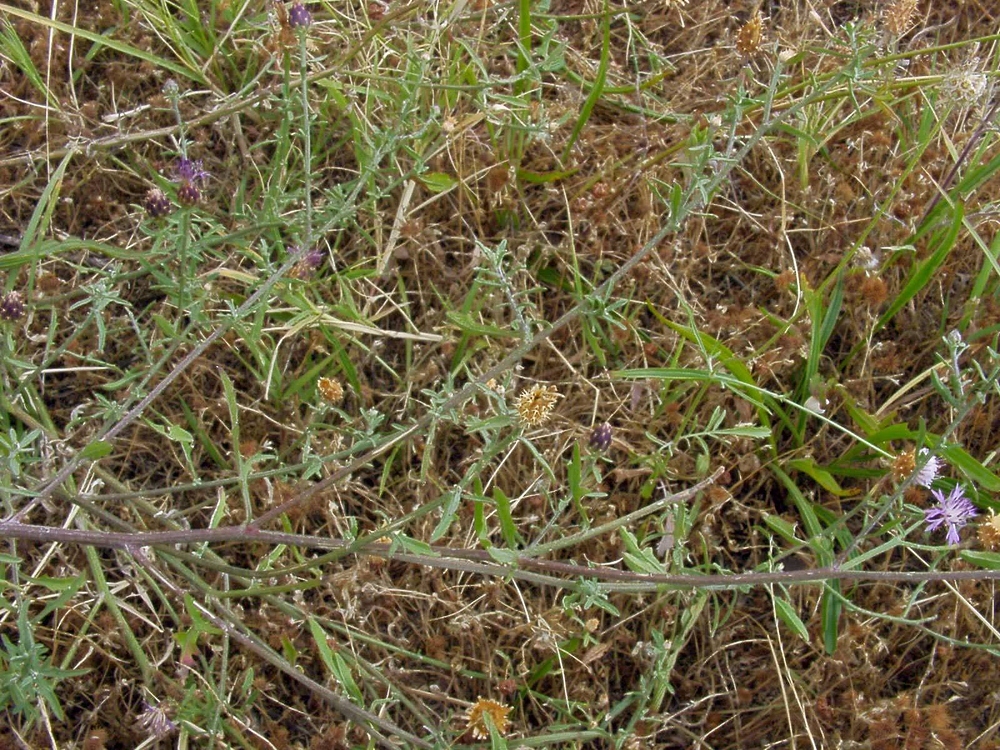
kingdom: Plantae
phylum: Tracheophyta
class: Magnoliopsida
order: Asterales
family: Asteraceae
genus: Centaurea
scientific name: Centaurea aspera
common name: Rough star-thistle
